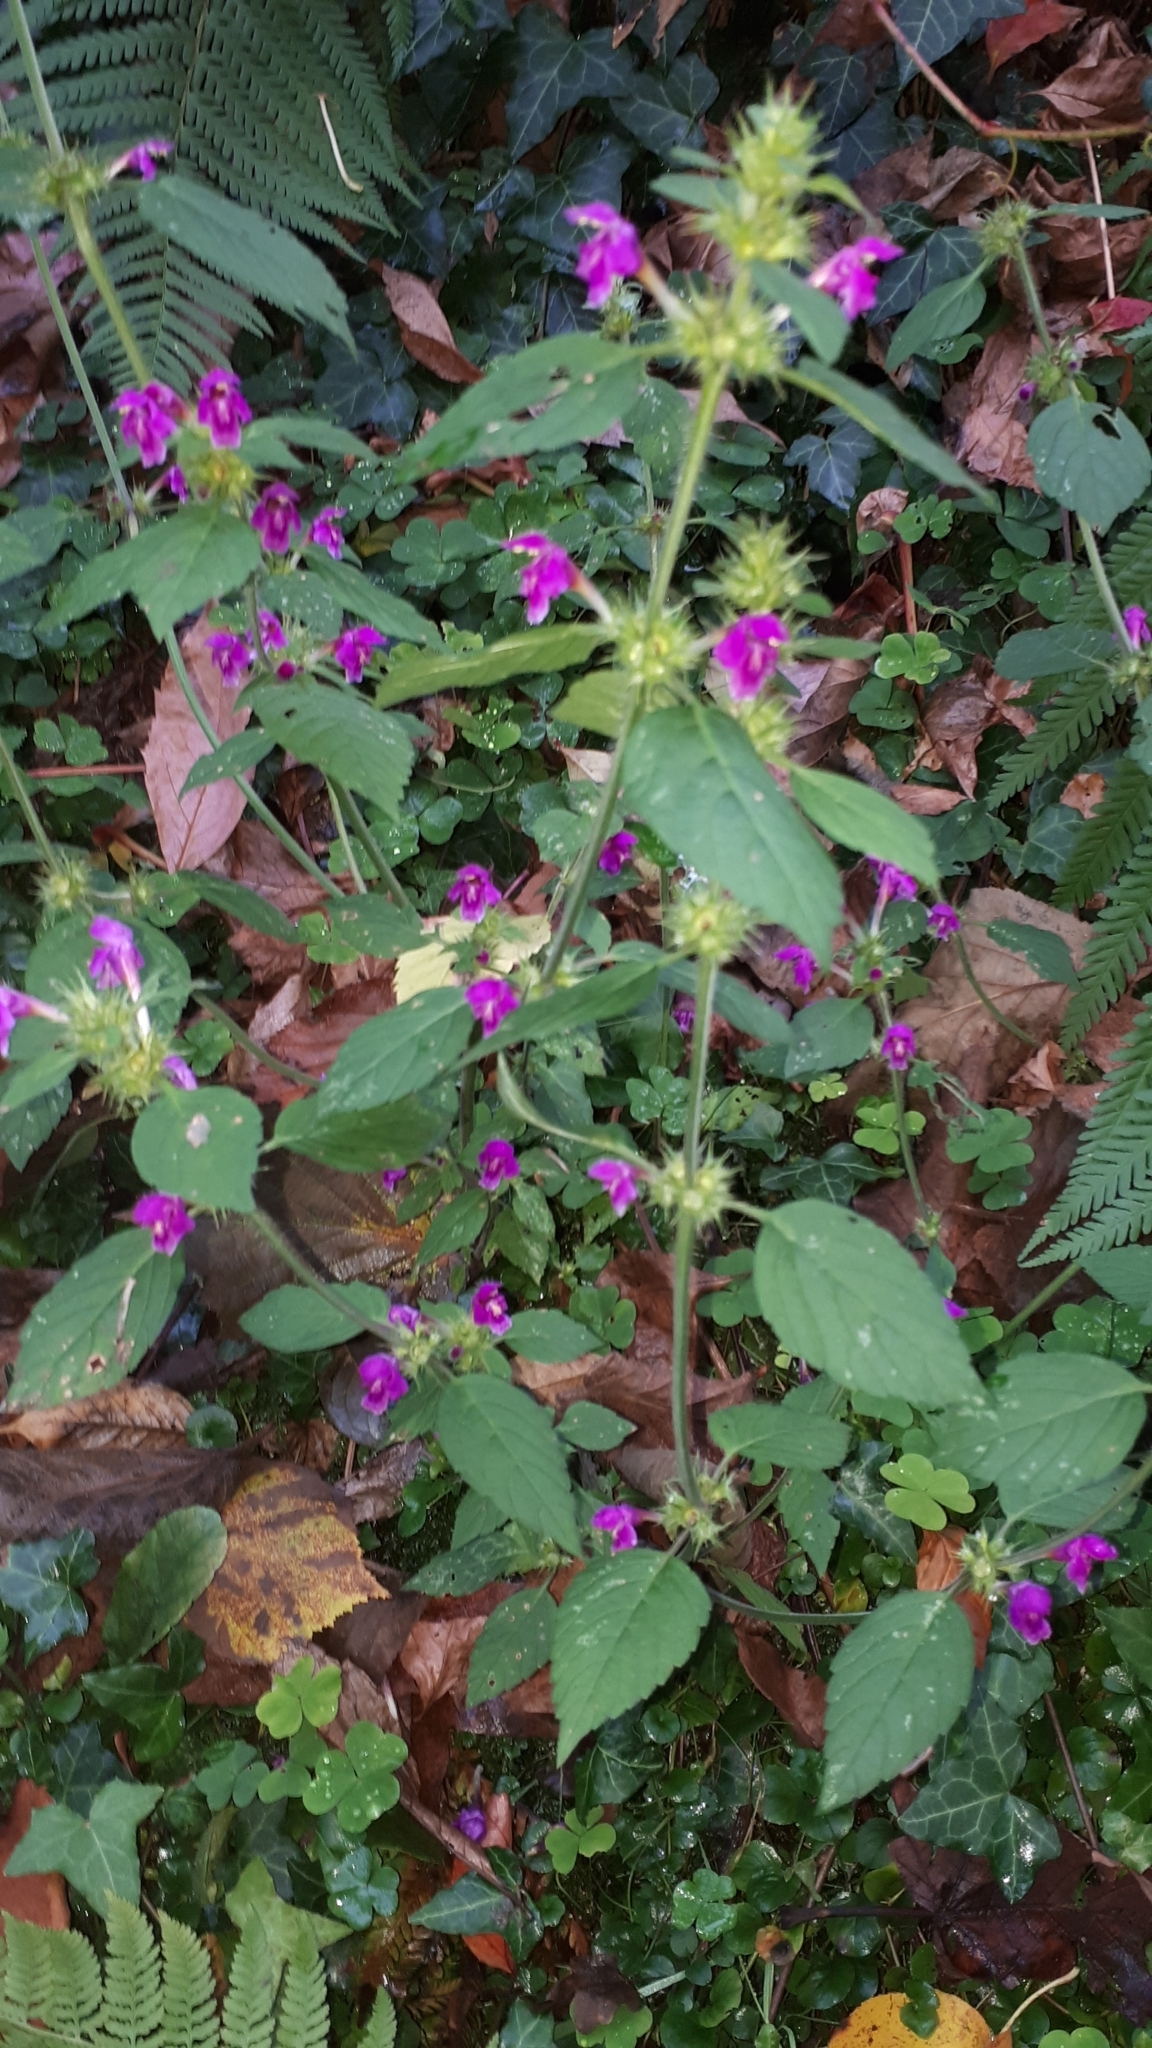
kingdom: Plantae
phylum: Tracheophyta
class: Magnoliopsida
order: Lamiales
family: Lamiaceae
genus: Galeopsis
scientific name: Galeopsis pubescens
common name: Downy hemp-nettle
